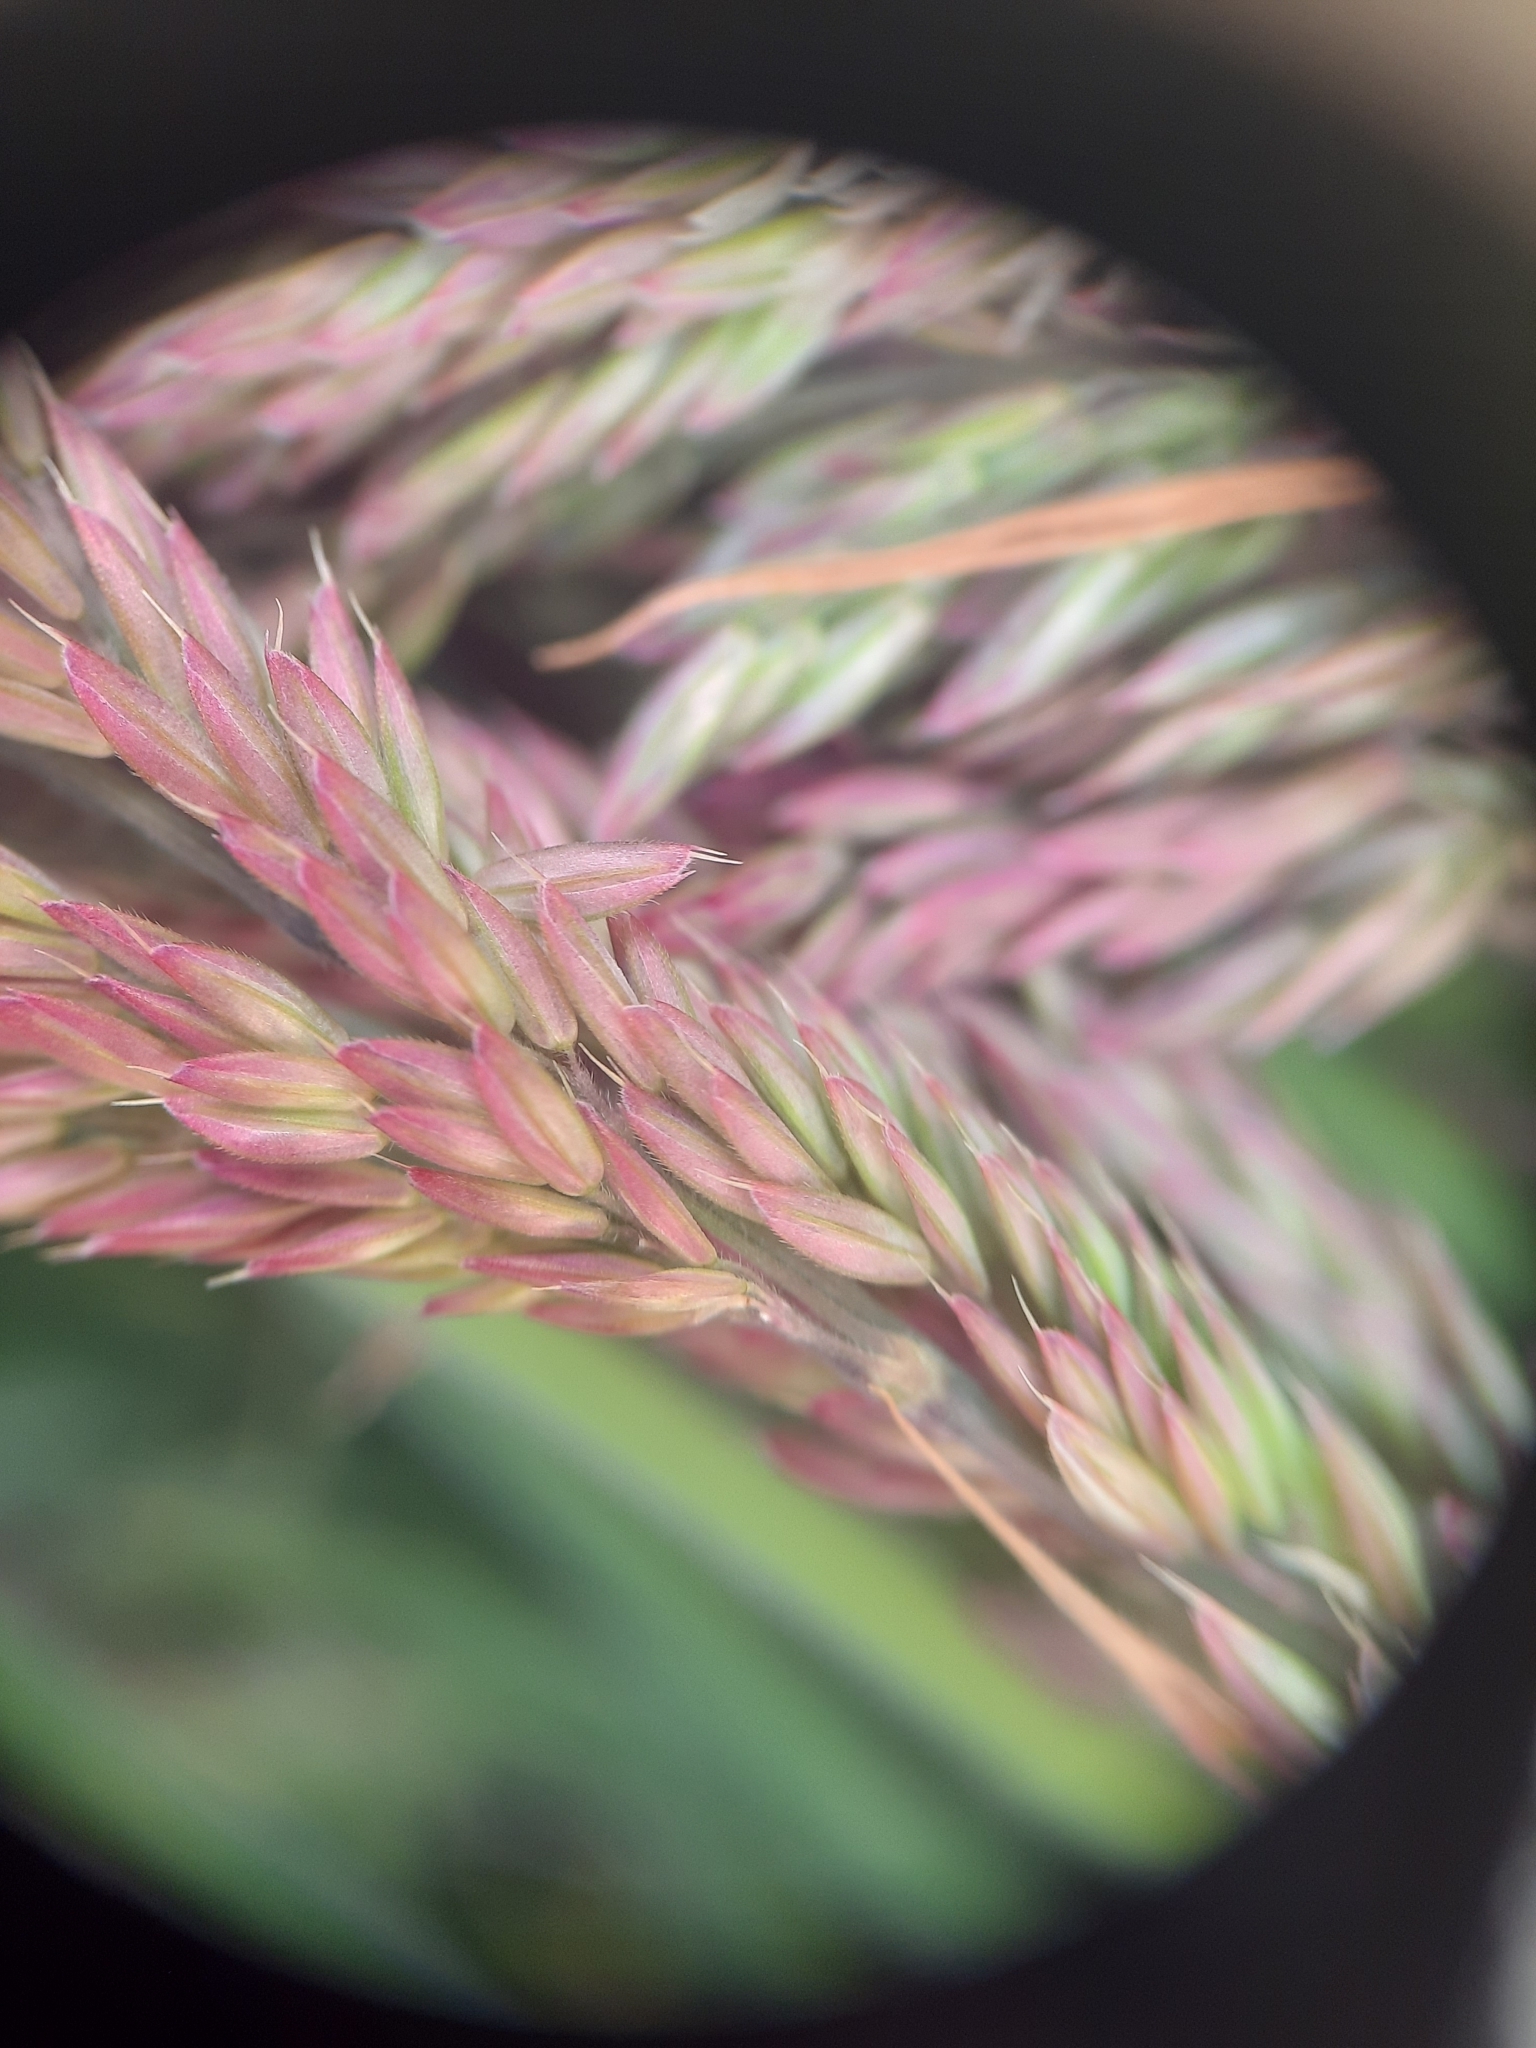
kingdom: Plantae
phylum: Tracheophyta
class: Liliopsida
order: Poales
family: Poaceae
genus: Holcus
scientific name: Holcus lanatus
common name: Yorkshire-fog
